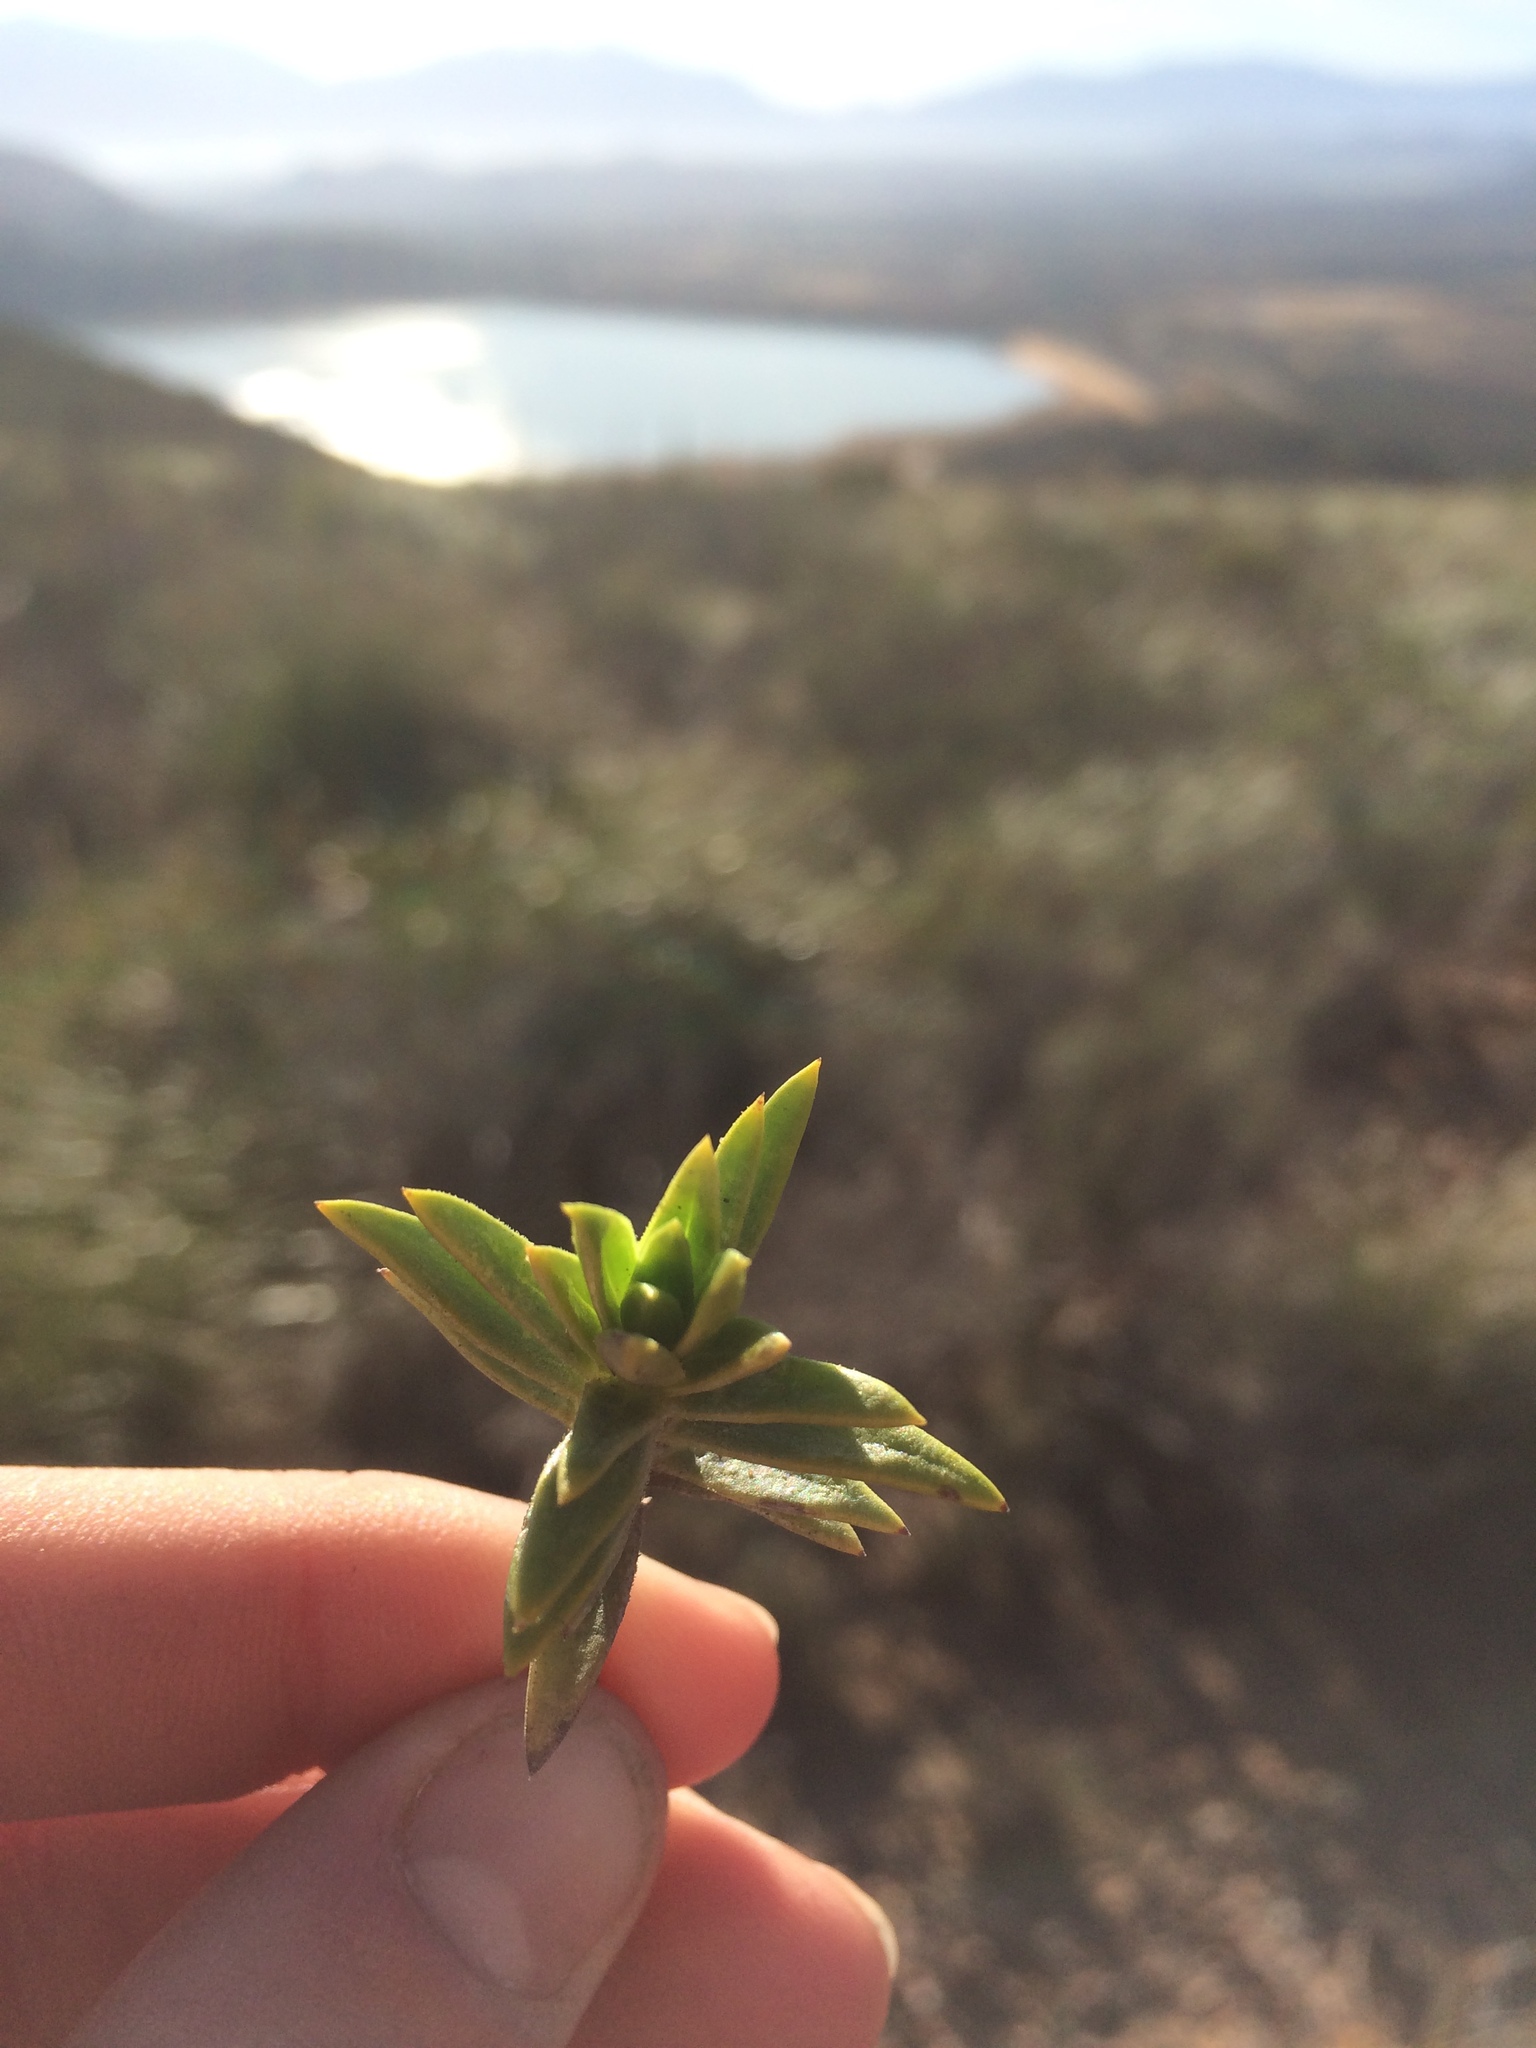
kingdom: Plantae
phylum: Tracheophyta
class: Magnoliopsida
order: Asterales
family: Asteraceae
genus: Pteronia
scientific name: Pteronia fasciculata
